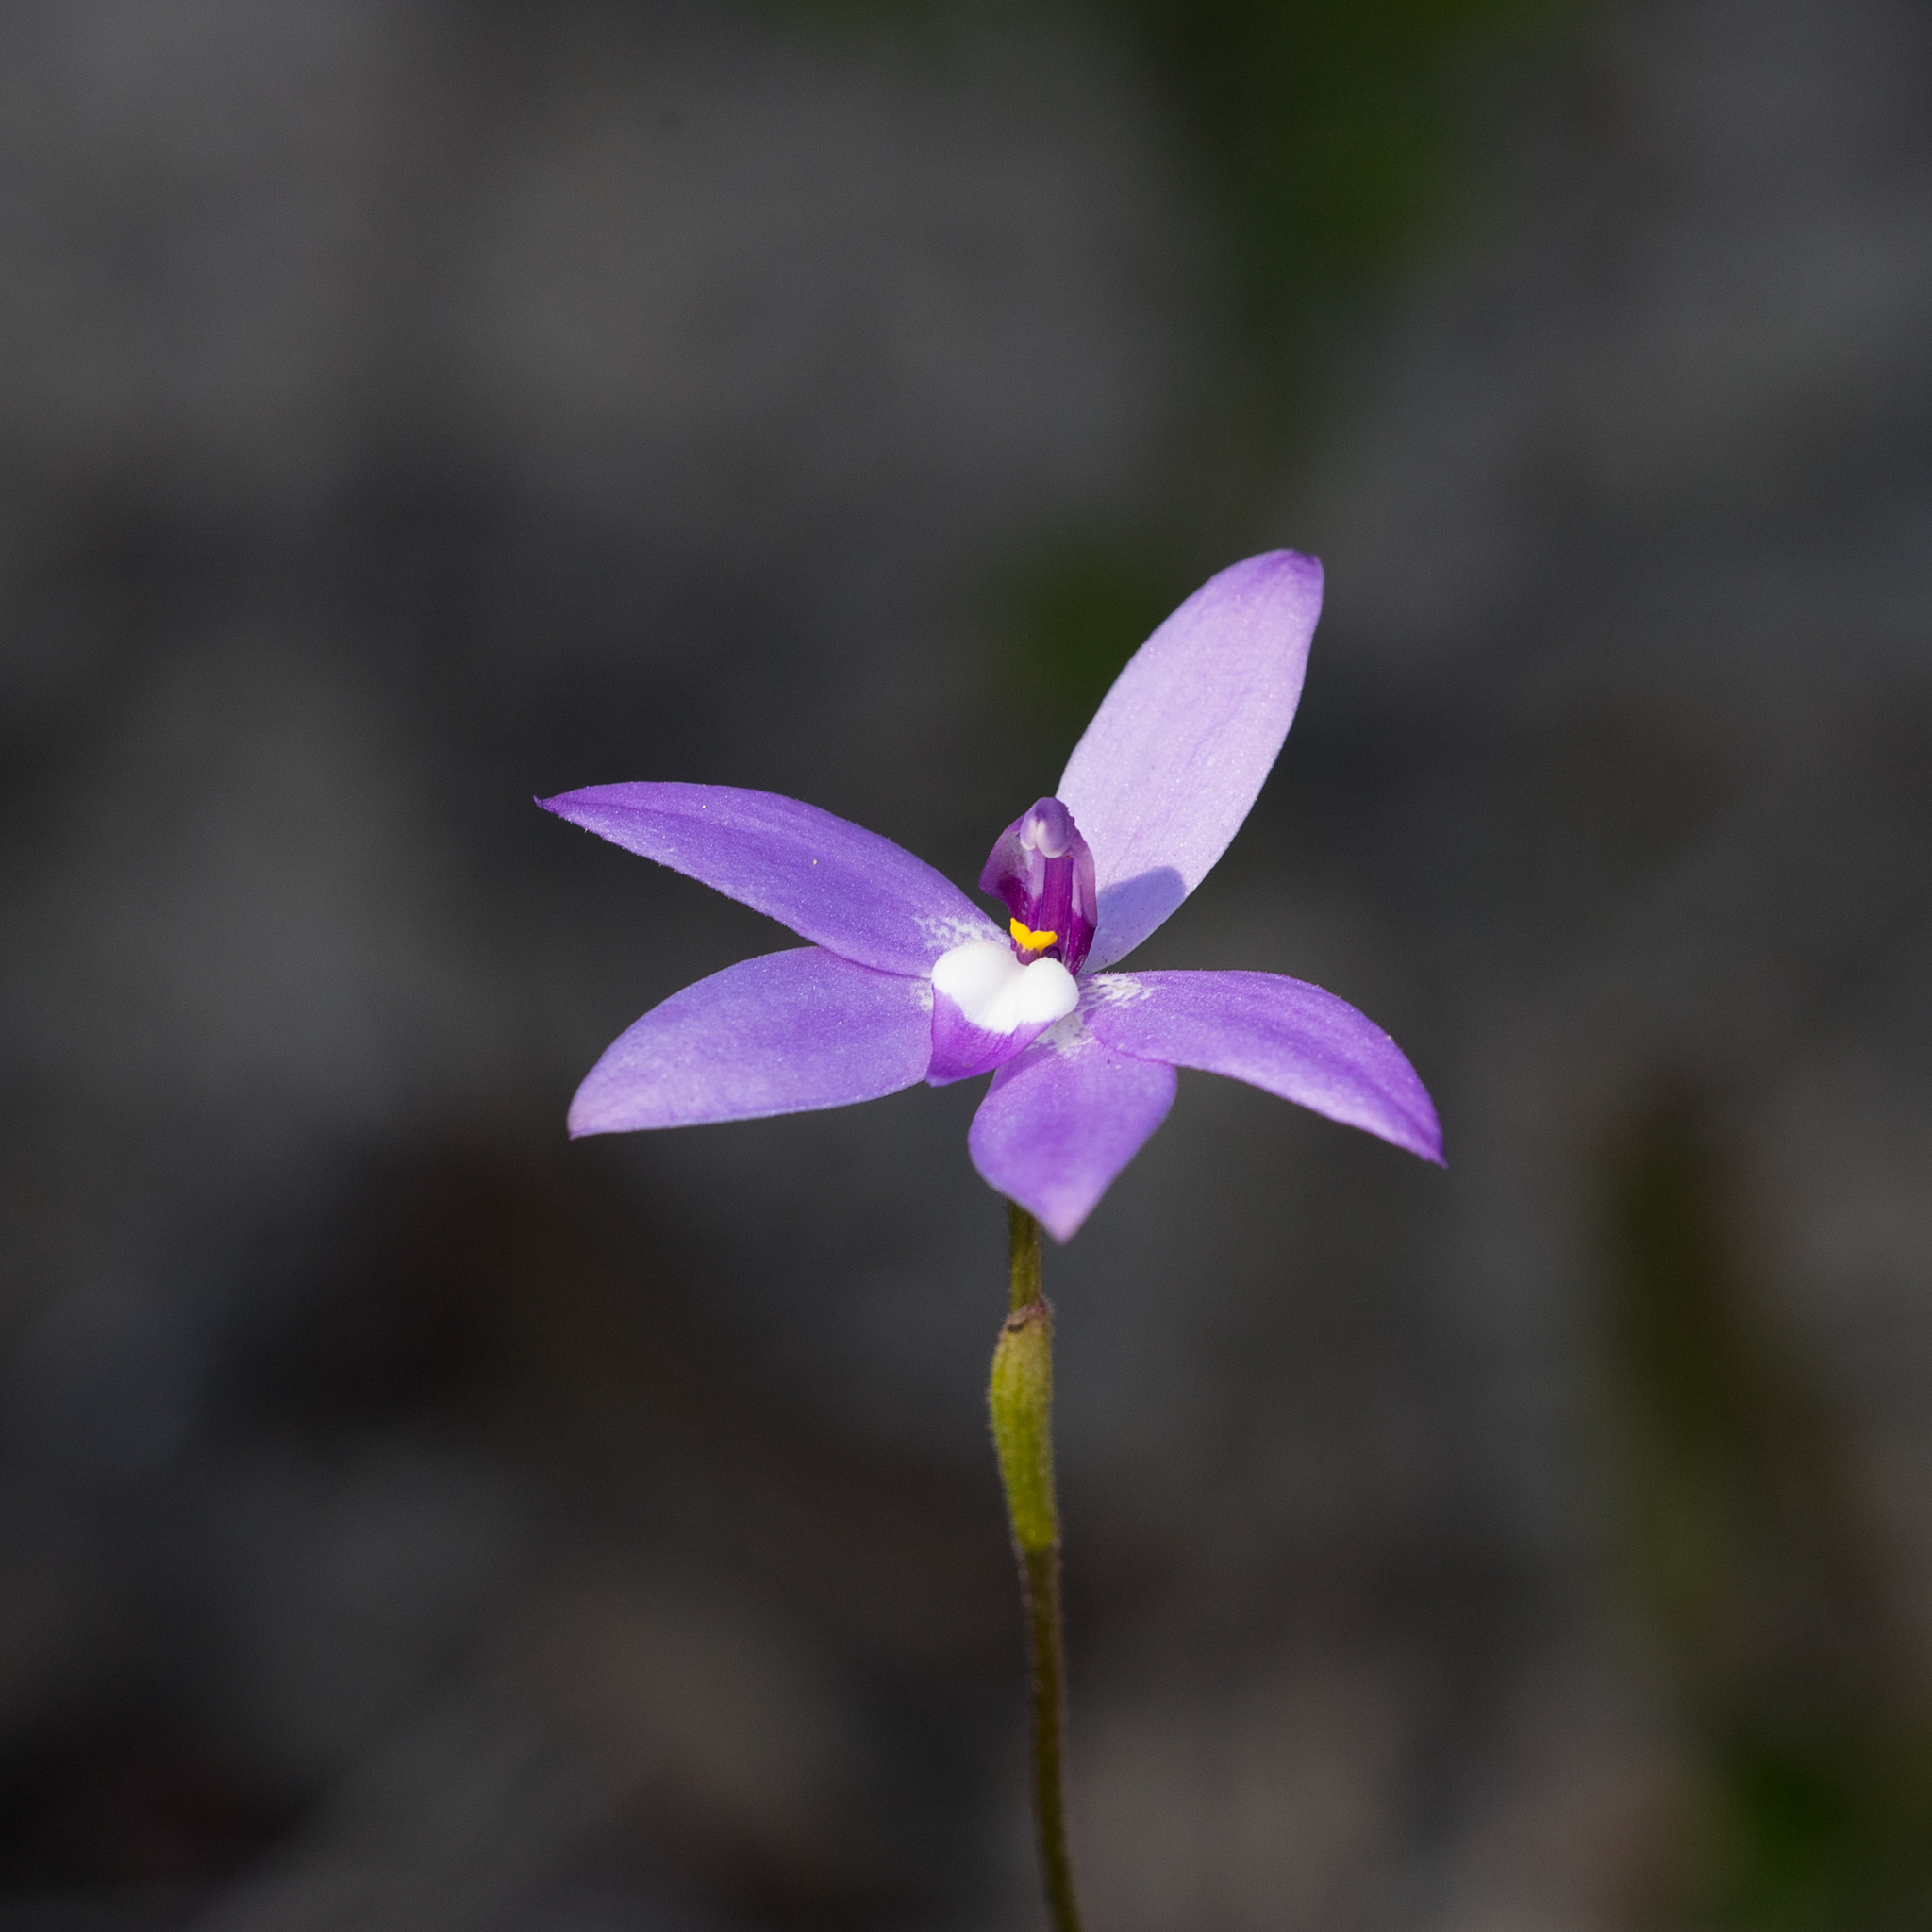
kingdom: Plantae
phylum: Tracheophyta
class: Liliopsida
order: Asparagales
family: Orchidaceae
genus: Caladenia
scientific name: Caladenia major
